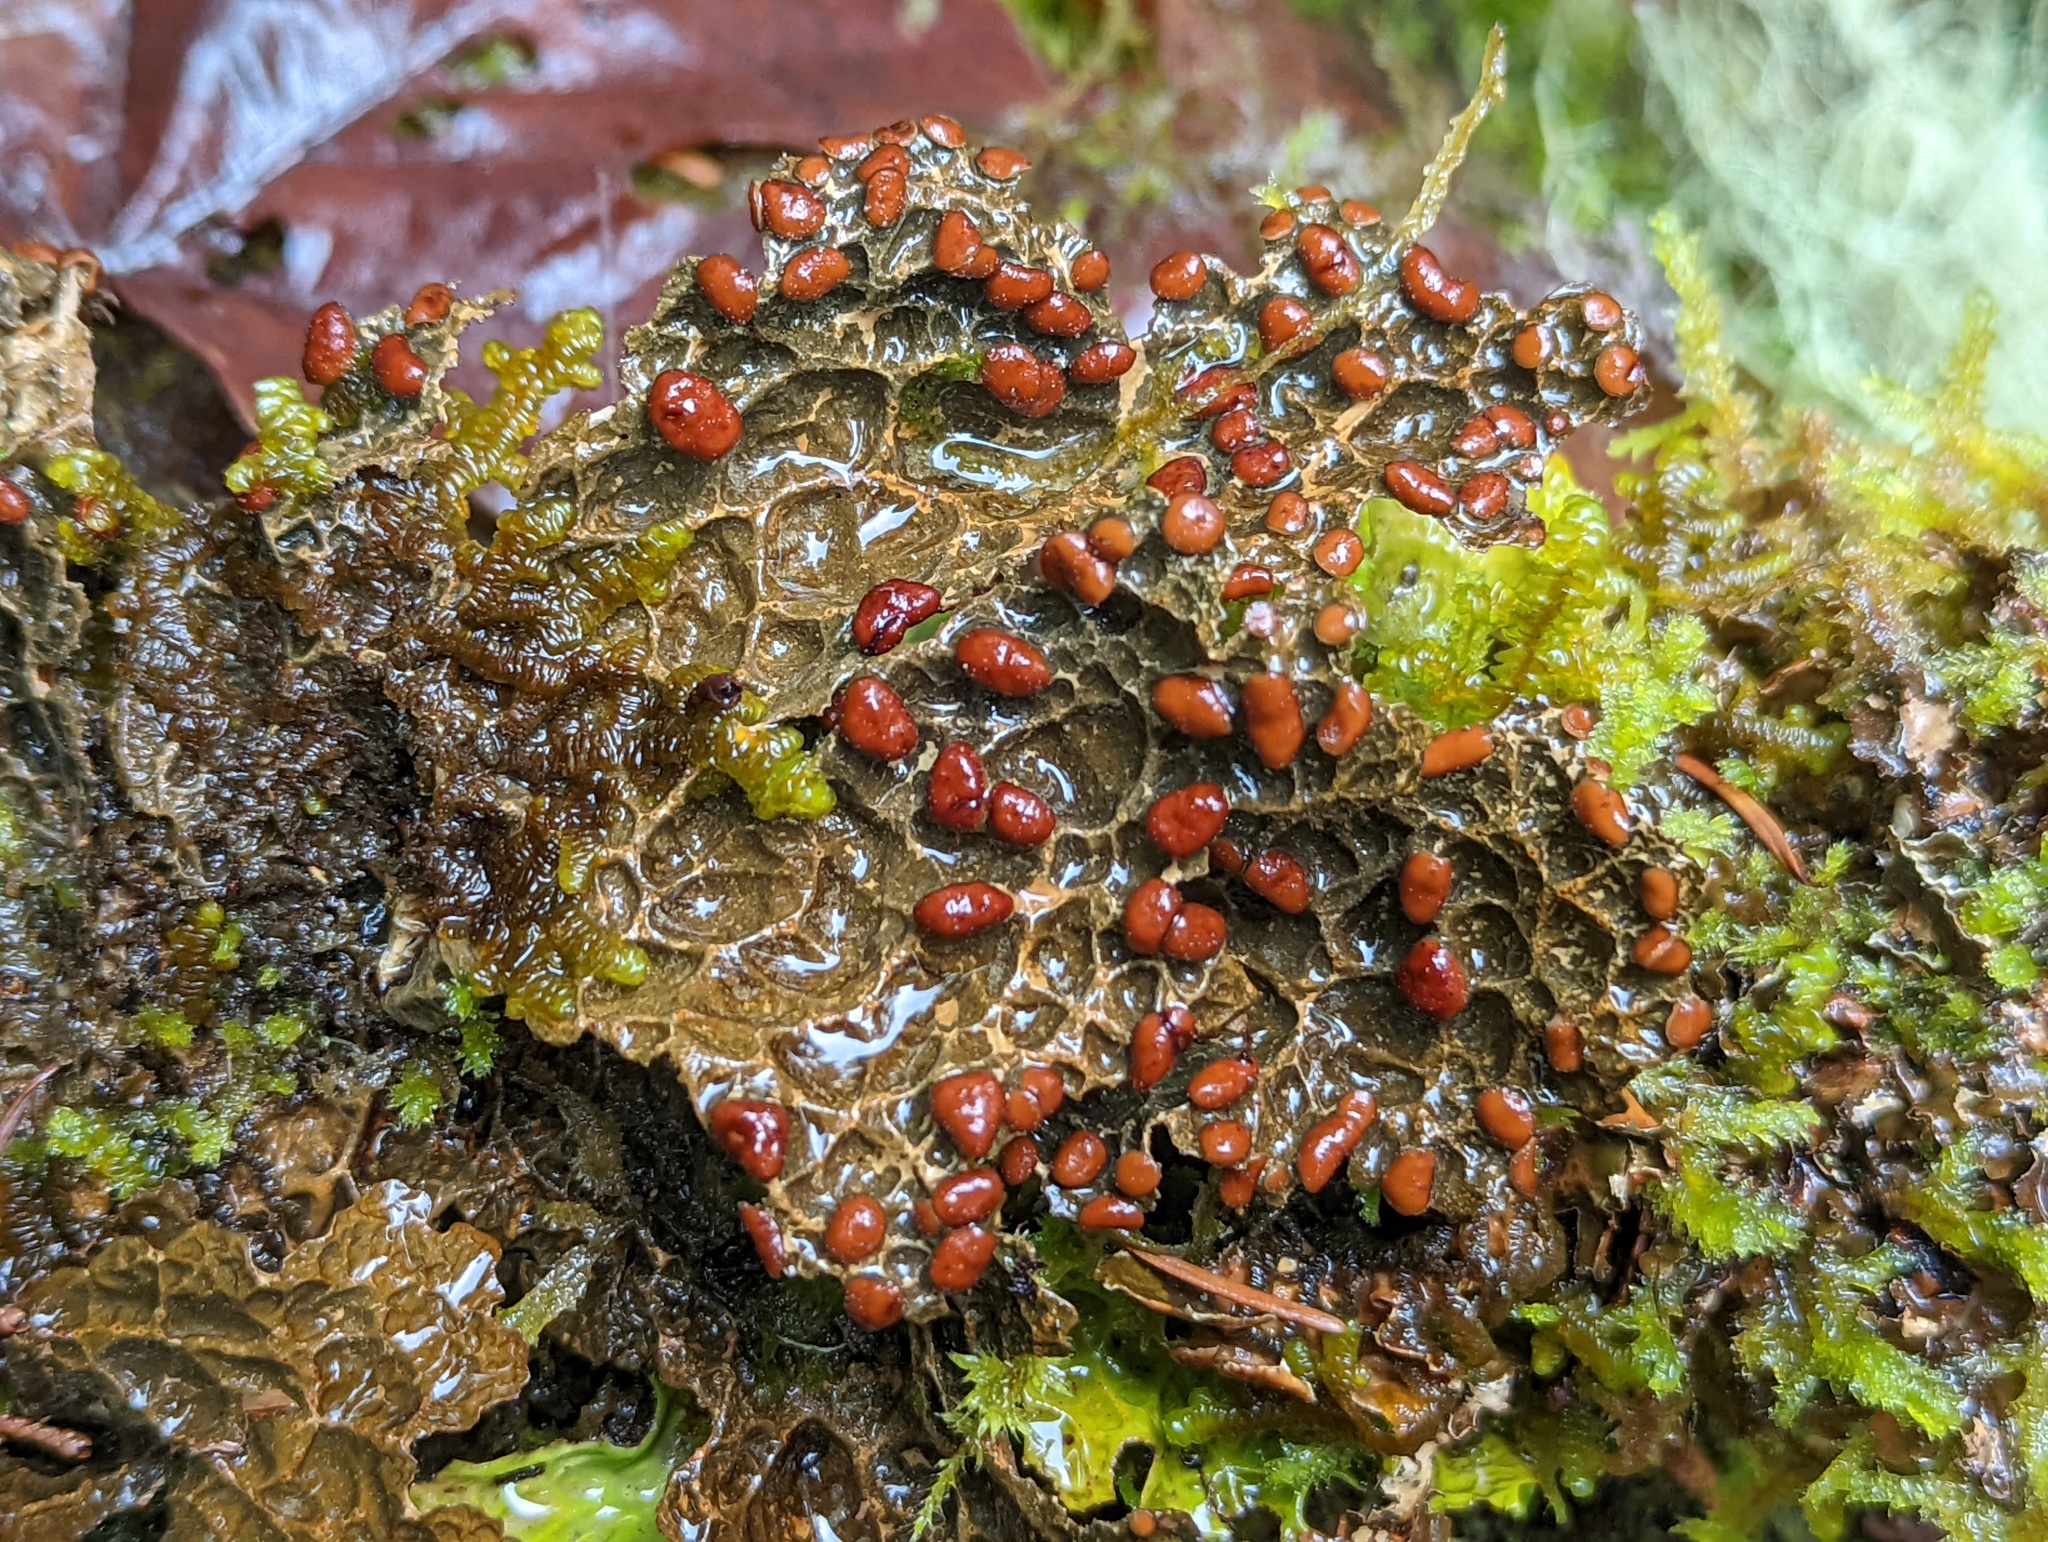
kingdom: Fungi
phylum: Ascomycota
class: Lecanoromycetes
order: Peltigerales
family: Lobariaceae
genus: Lobaria
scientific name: Lobaria anthraspis
